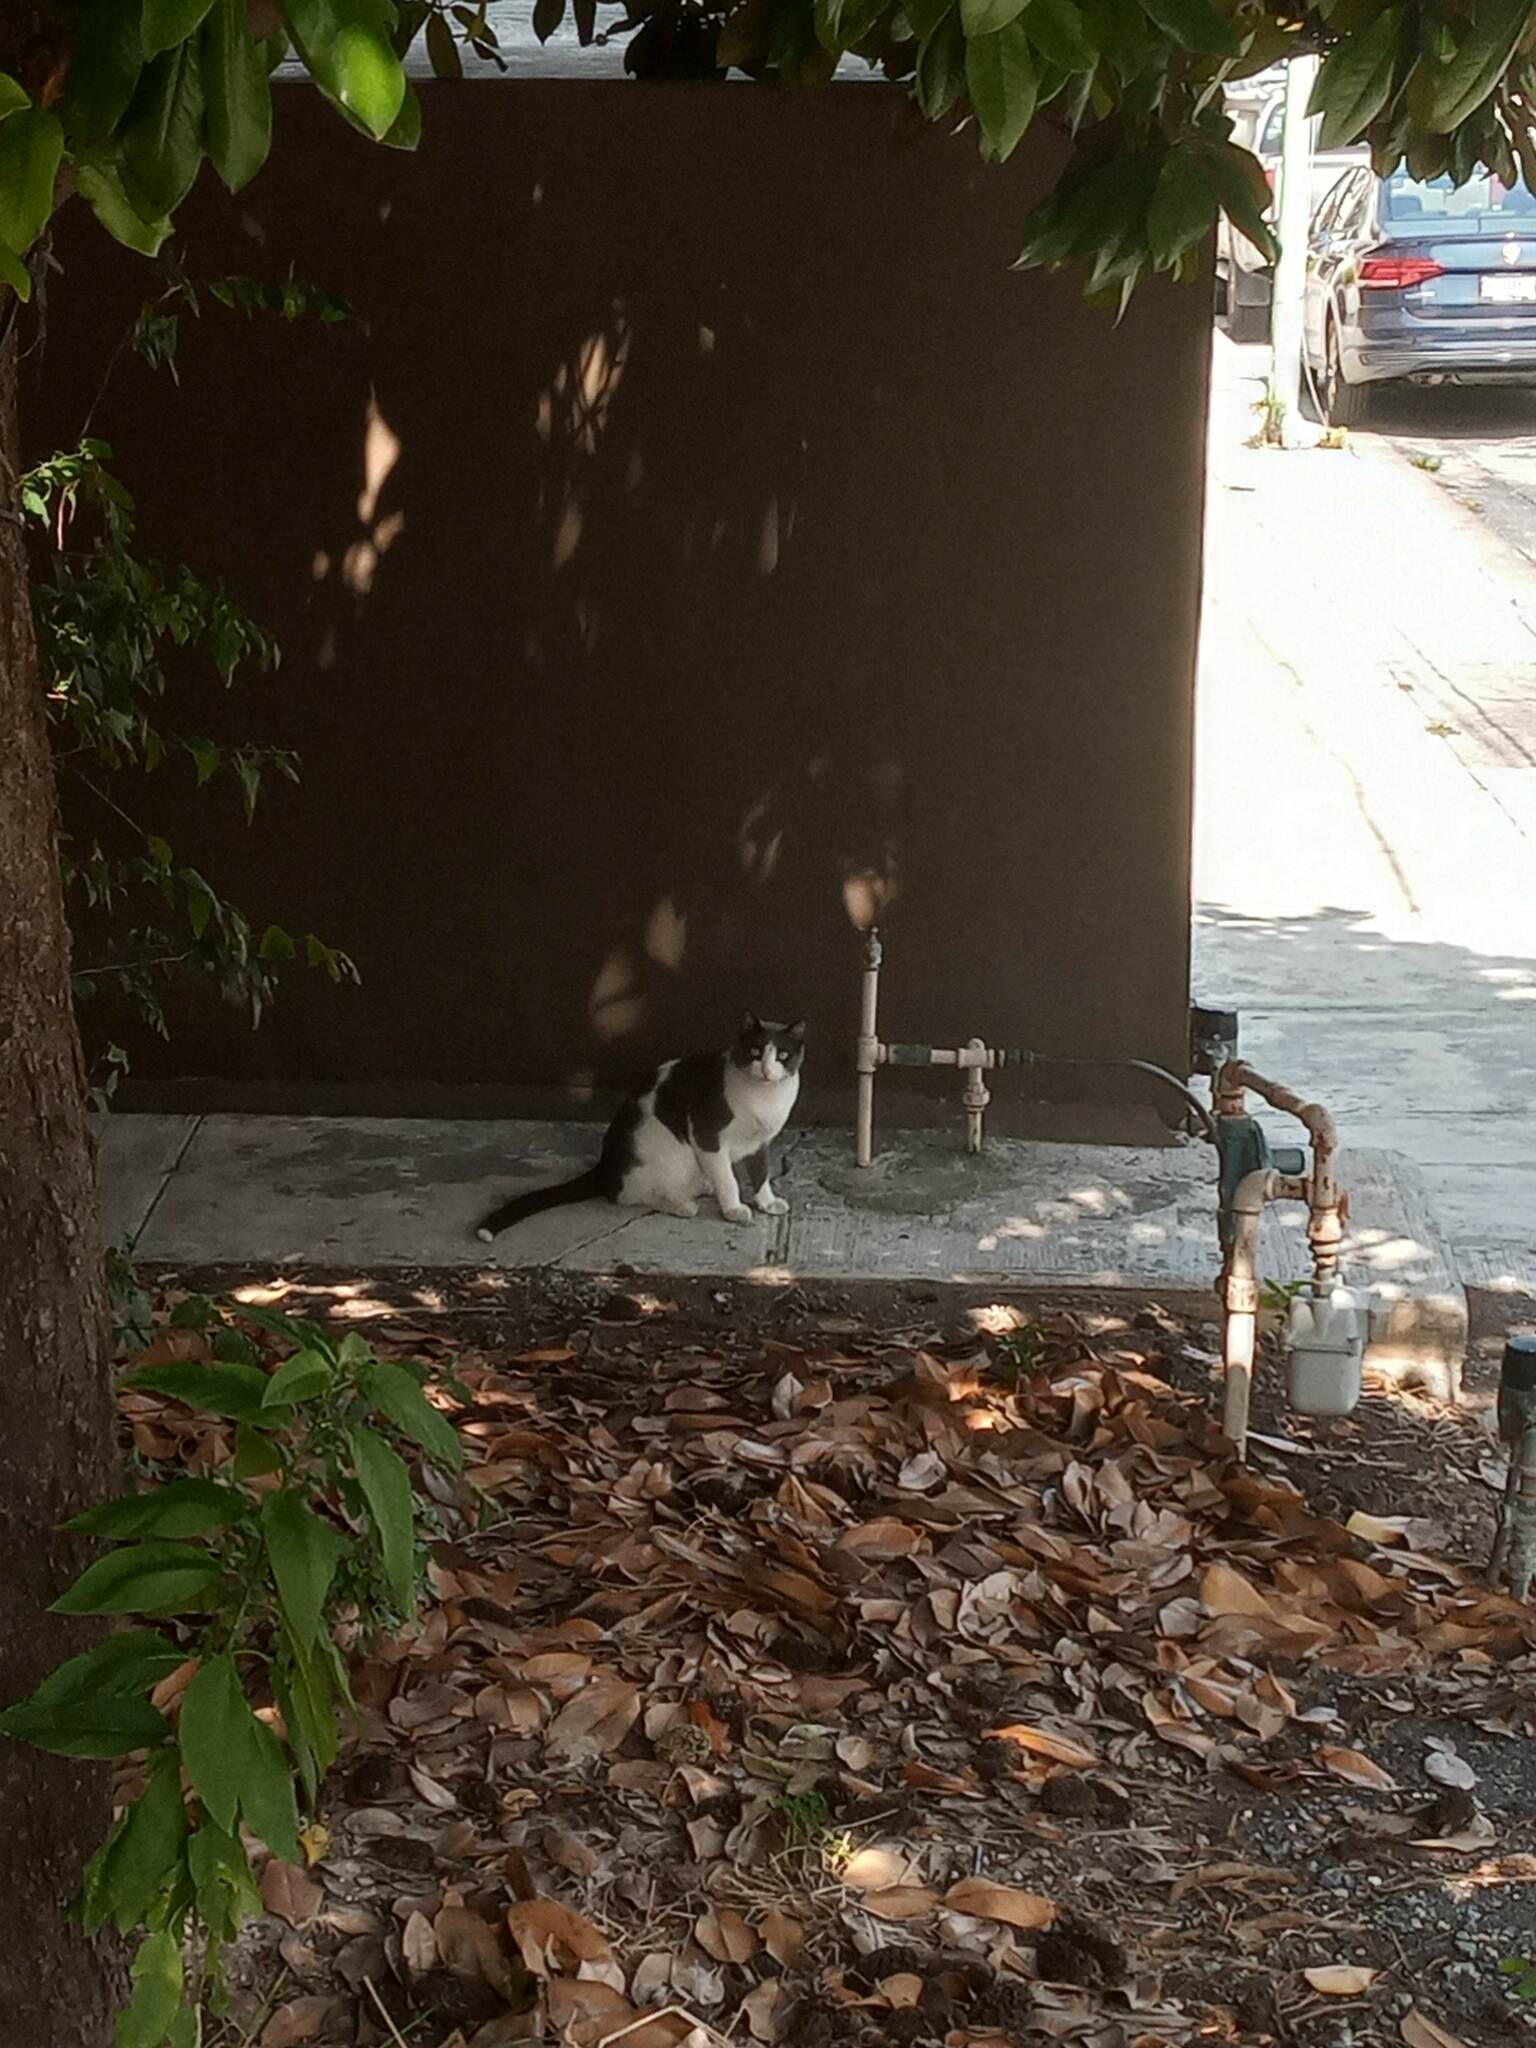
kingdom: Animalia
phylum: Chordata
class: Mammalia
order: Carnivora
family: Felidae
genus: Felis
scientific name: Felis catus
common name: Domestic cat
